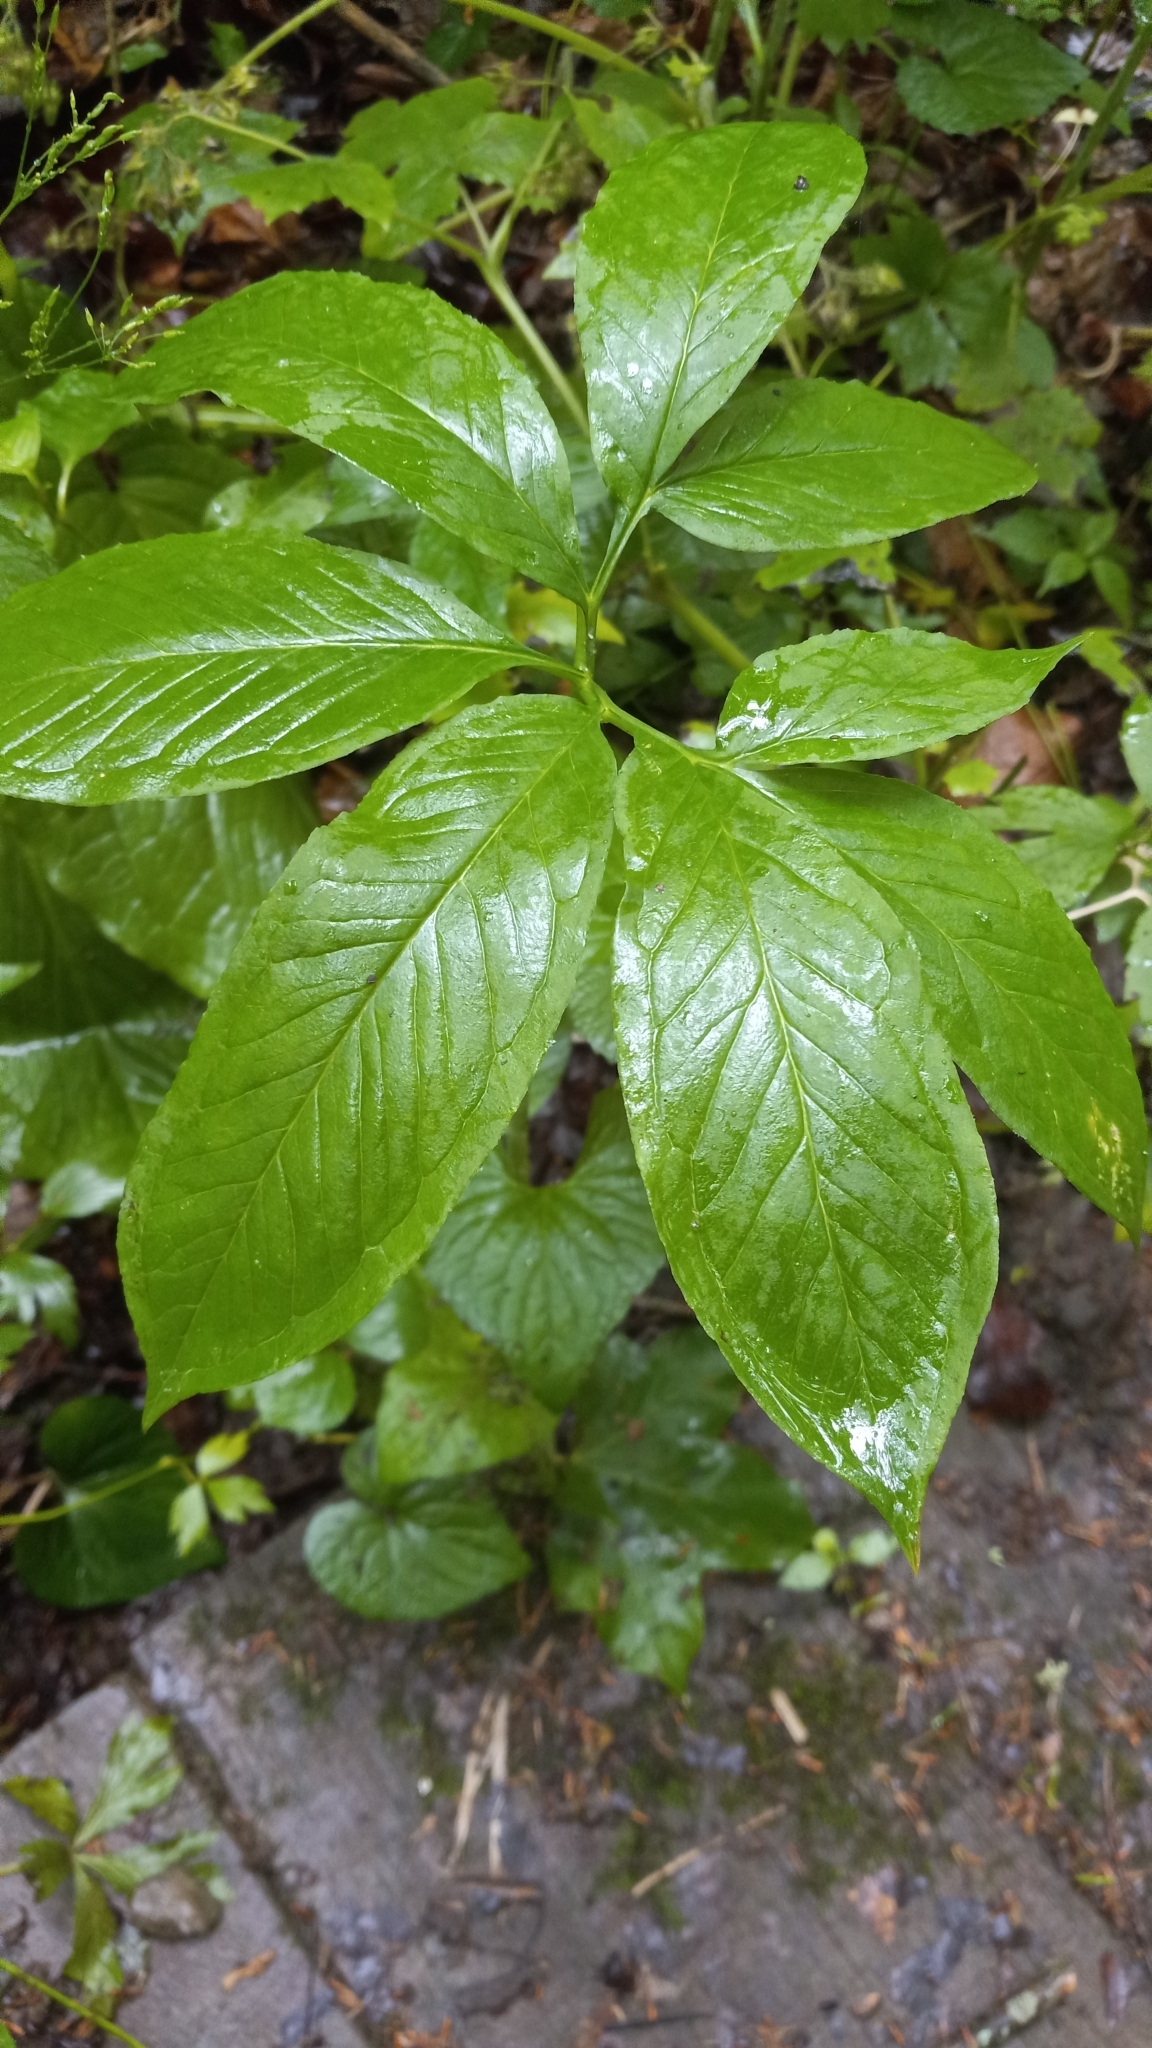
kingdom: Plantae
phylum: Tracheophyta
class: Liliopsida
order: Alismatales
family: Araceae
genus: Arisaema
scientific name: Arisaema dracontium
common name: Dragon-arum
